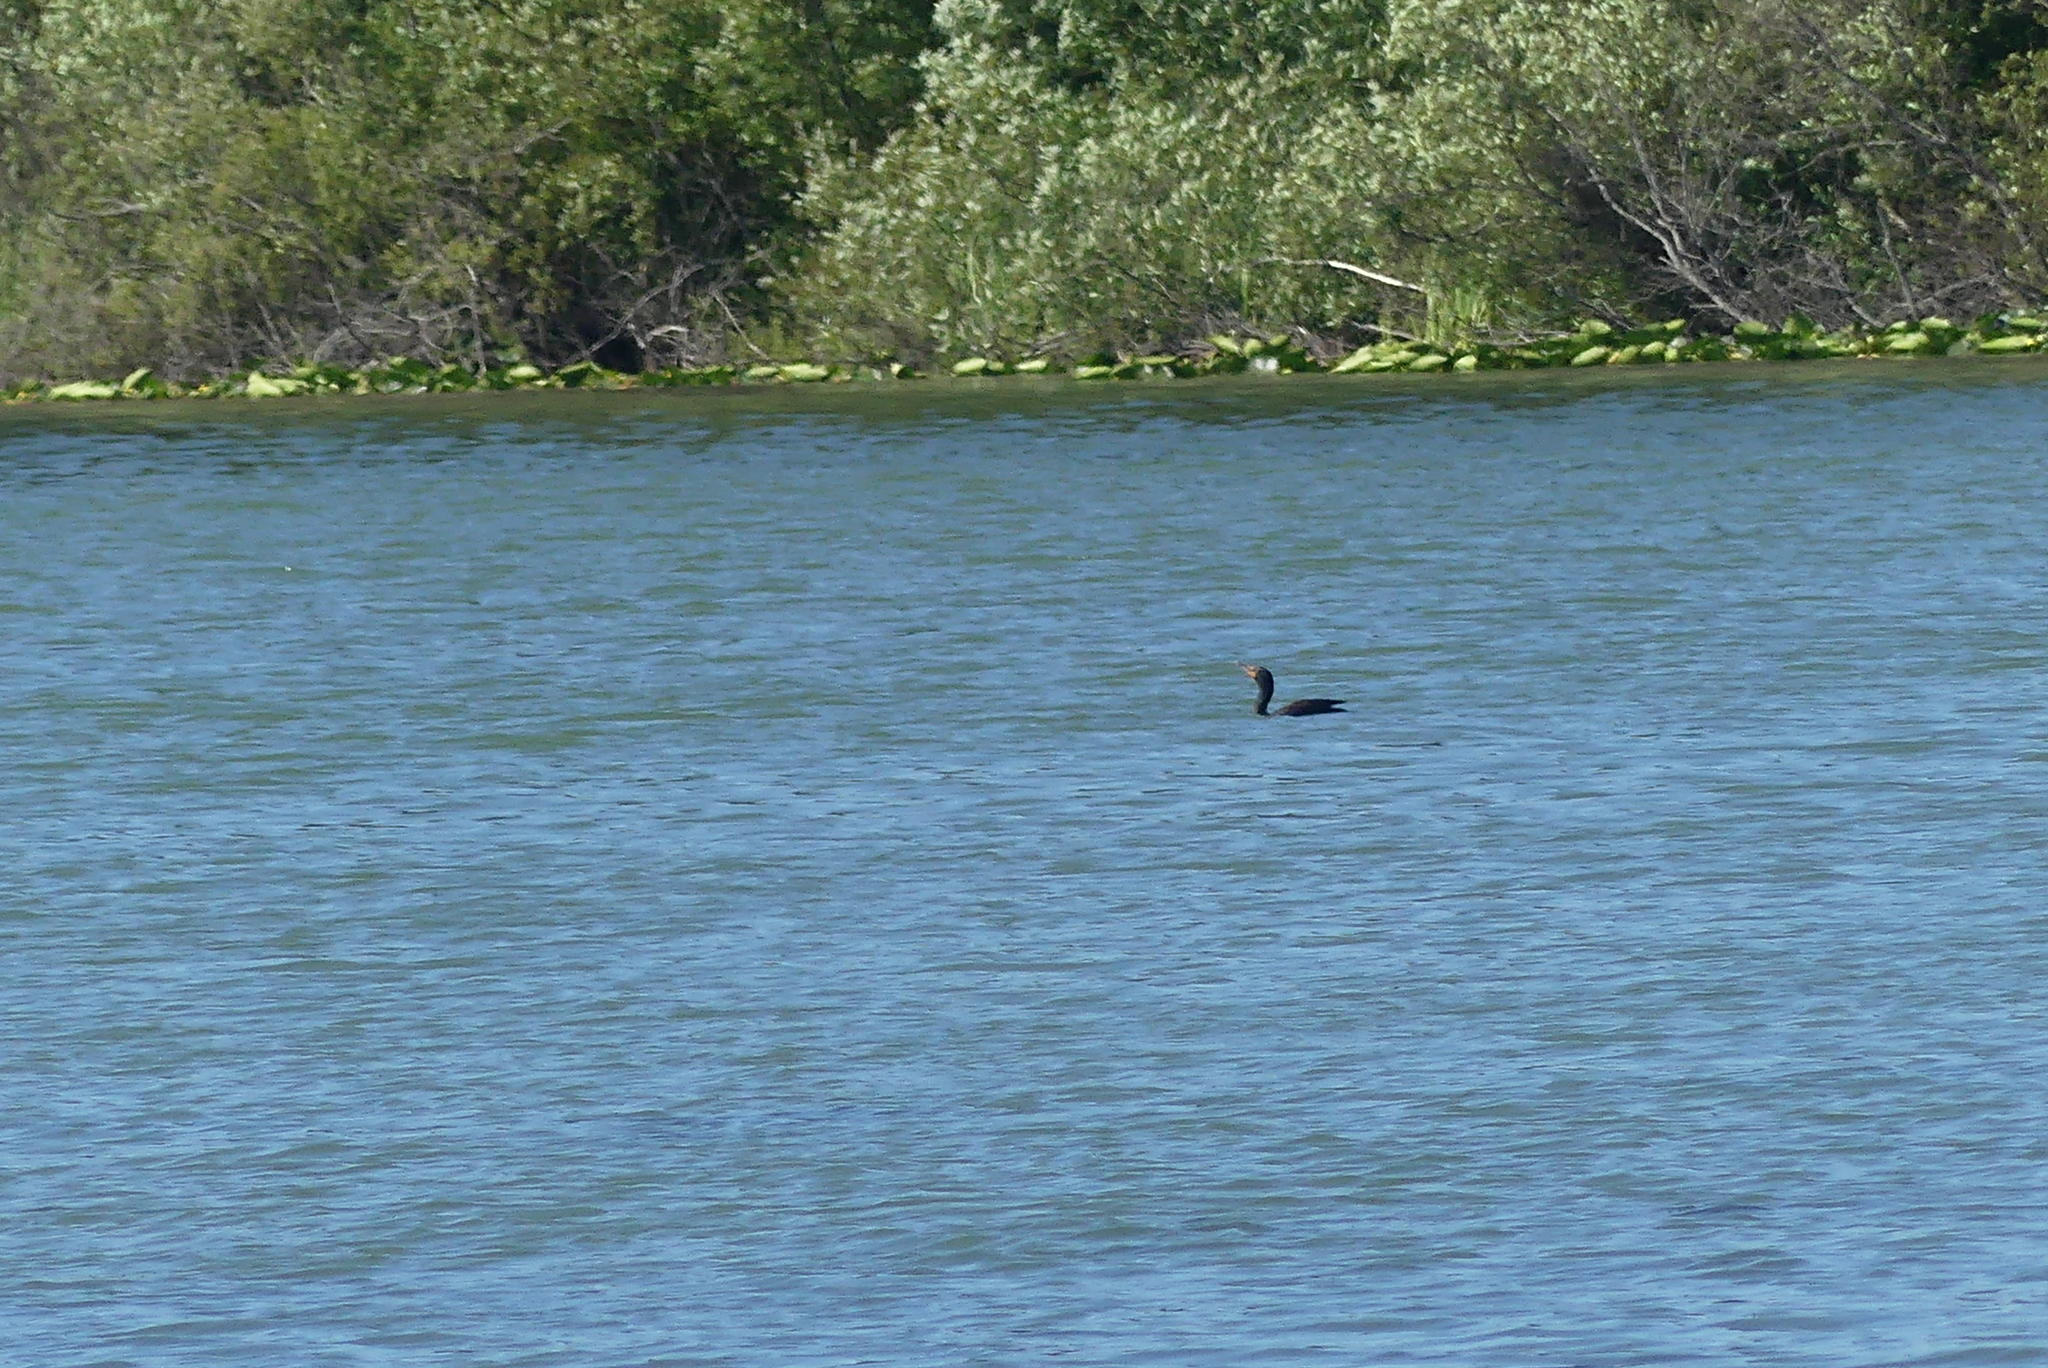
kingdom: Animalia
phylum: Chordata
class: Aves
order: Suliformes
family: Phalacrocoracidae
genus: Phalacrocorax
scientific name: Phalacrocorax auritus
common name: Double-crested cormorant
